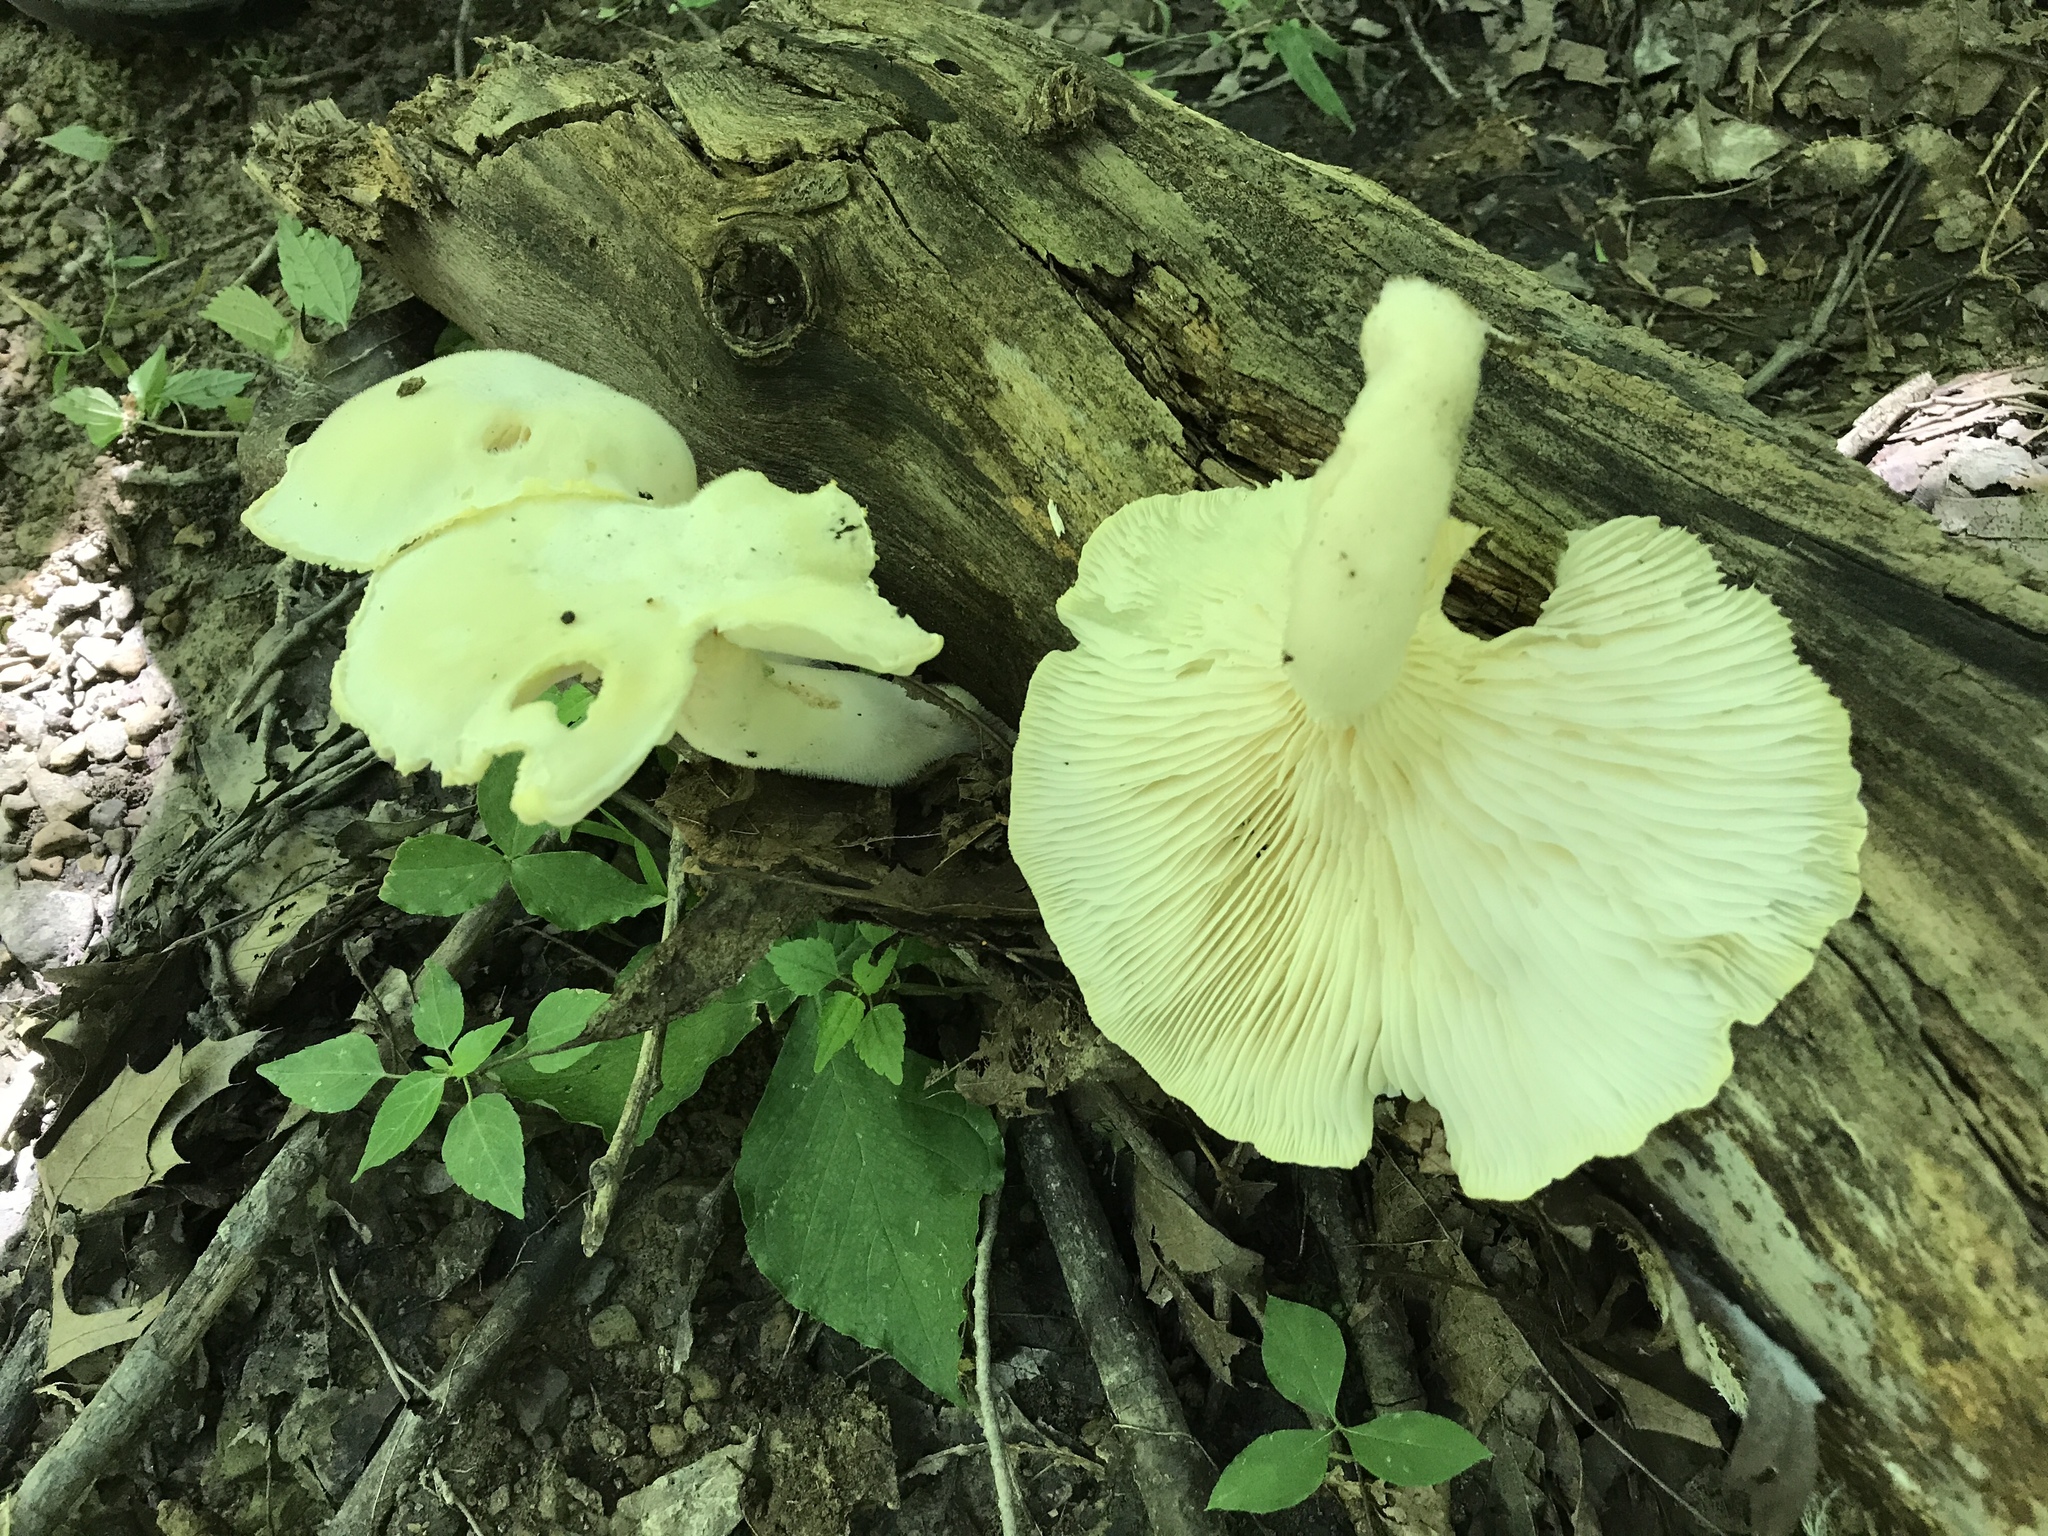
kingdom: Fungi
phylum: Basidiomycota
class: Agaricomycetes
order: Polyporales
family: Polyporaceae
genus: Lentinus
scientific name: Lentinus levis
